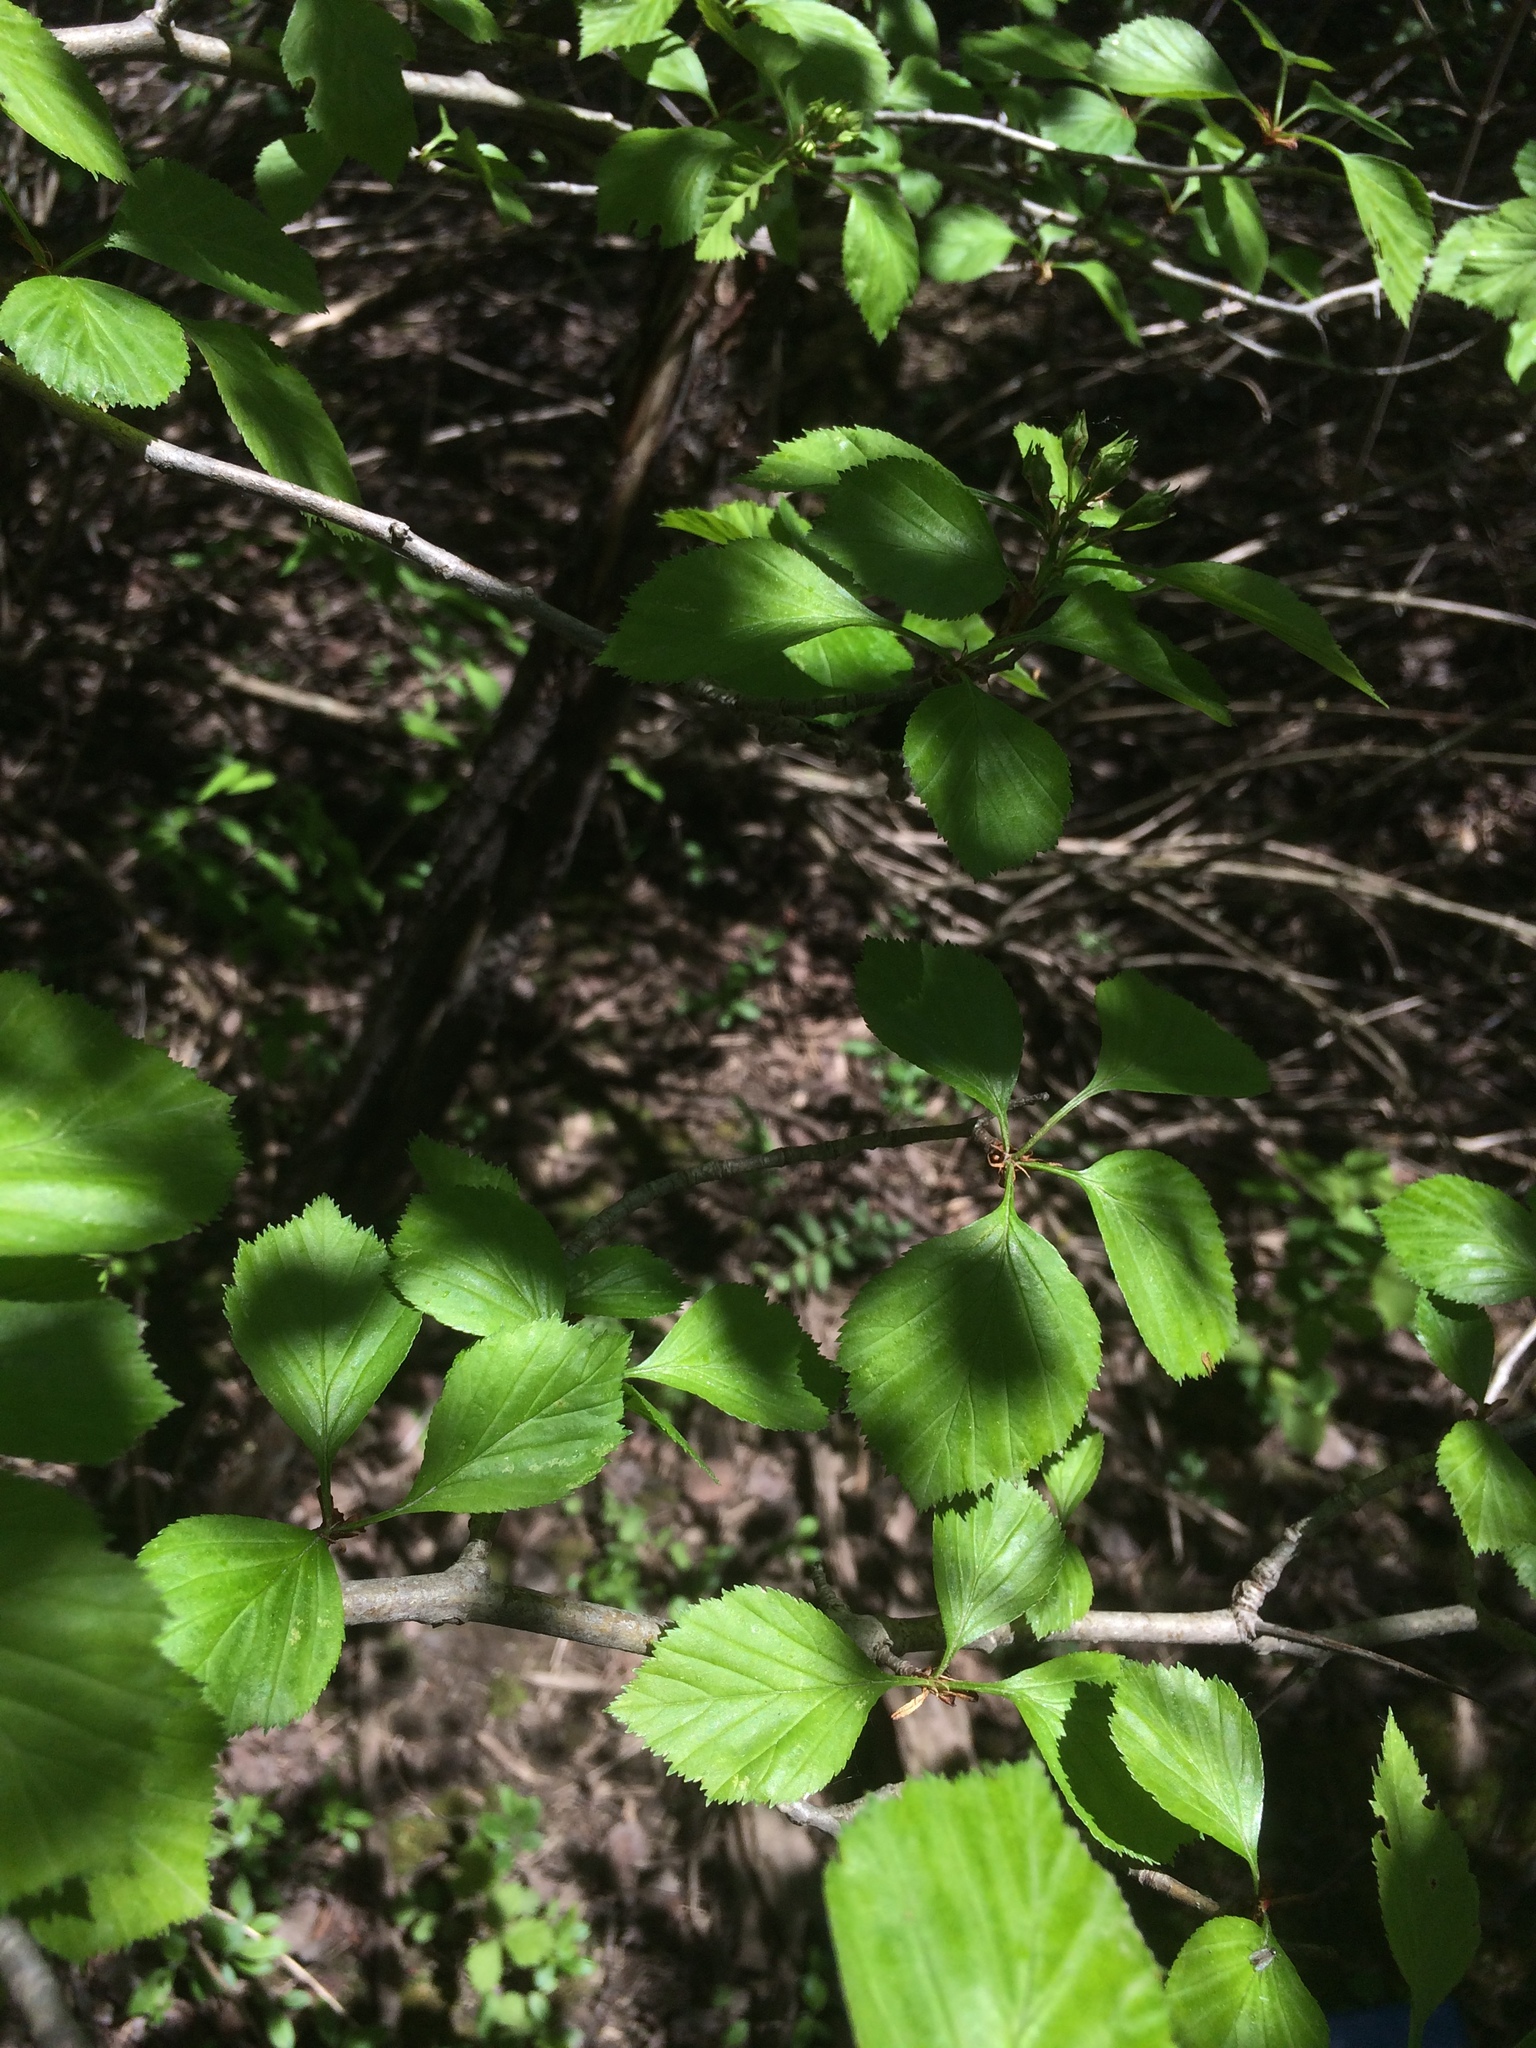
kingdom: Plantae
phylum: Tracheophyta
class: Magnoliopsida
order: Rosales
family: Rosaceae
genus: Crataegus
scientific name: Crataegus suborbiculata
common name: Caughnawaga hawthorn
